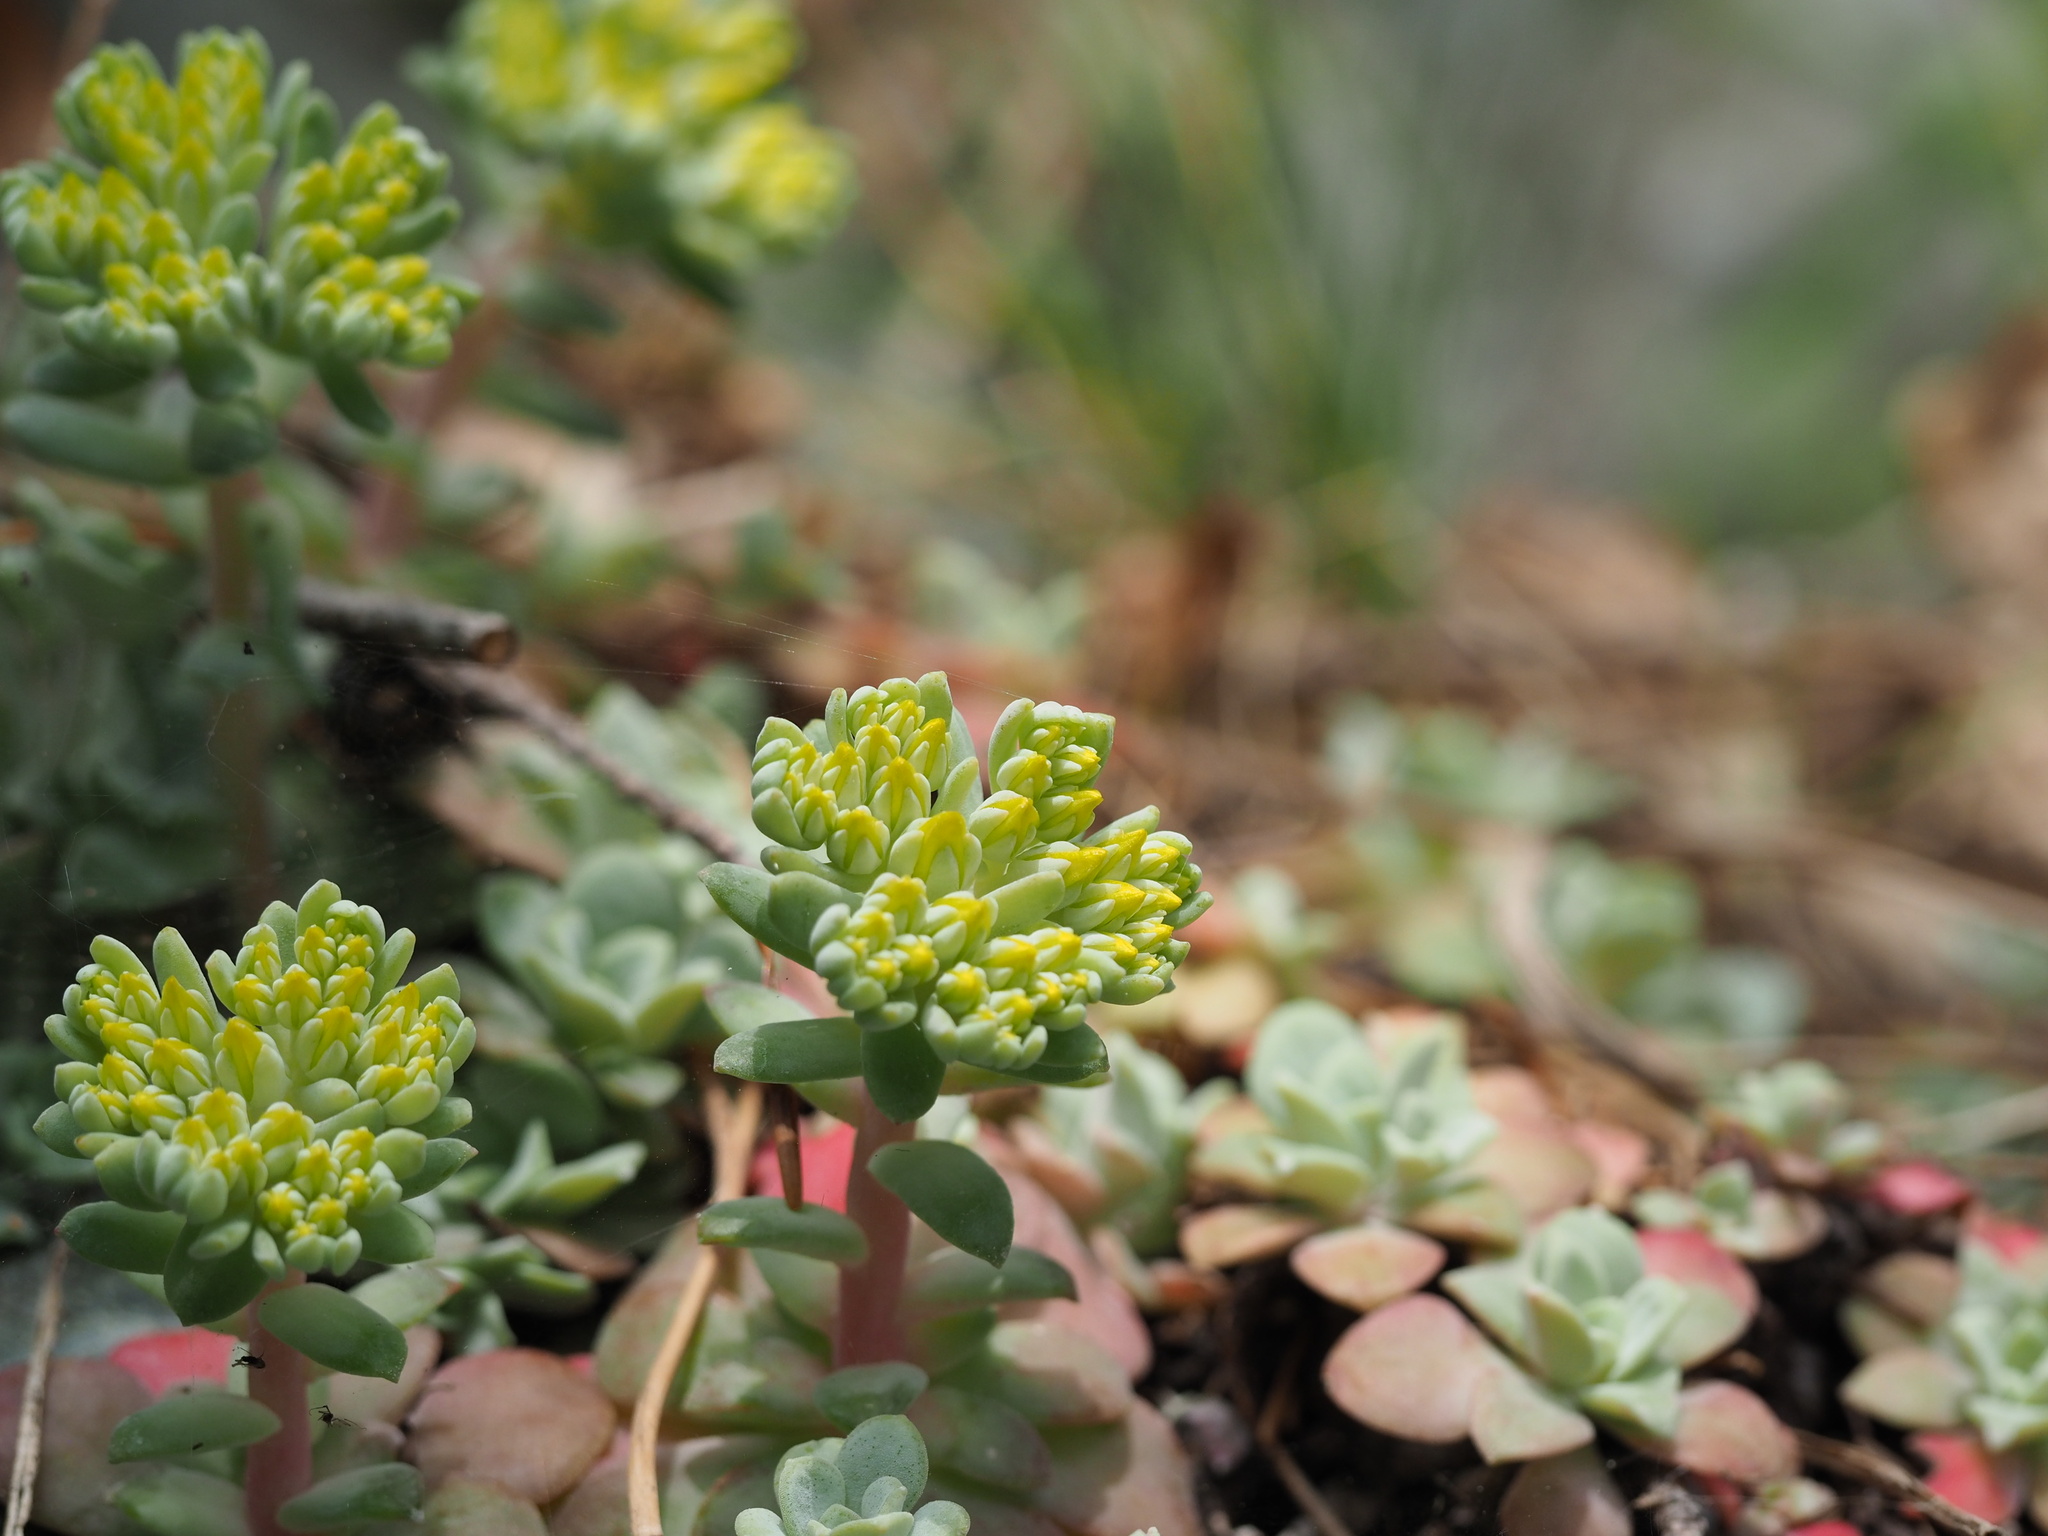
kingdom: Plantae
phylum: Tracheophyta
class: Magnoliopsida
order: Saxifragales
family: Crassulaceae
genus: Sedum
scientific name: Sedum spathulifolium
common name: Colorado stonecrop
